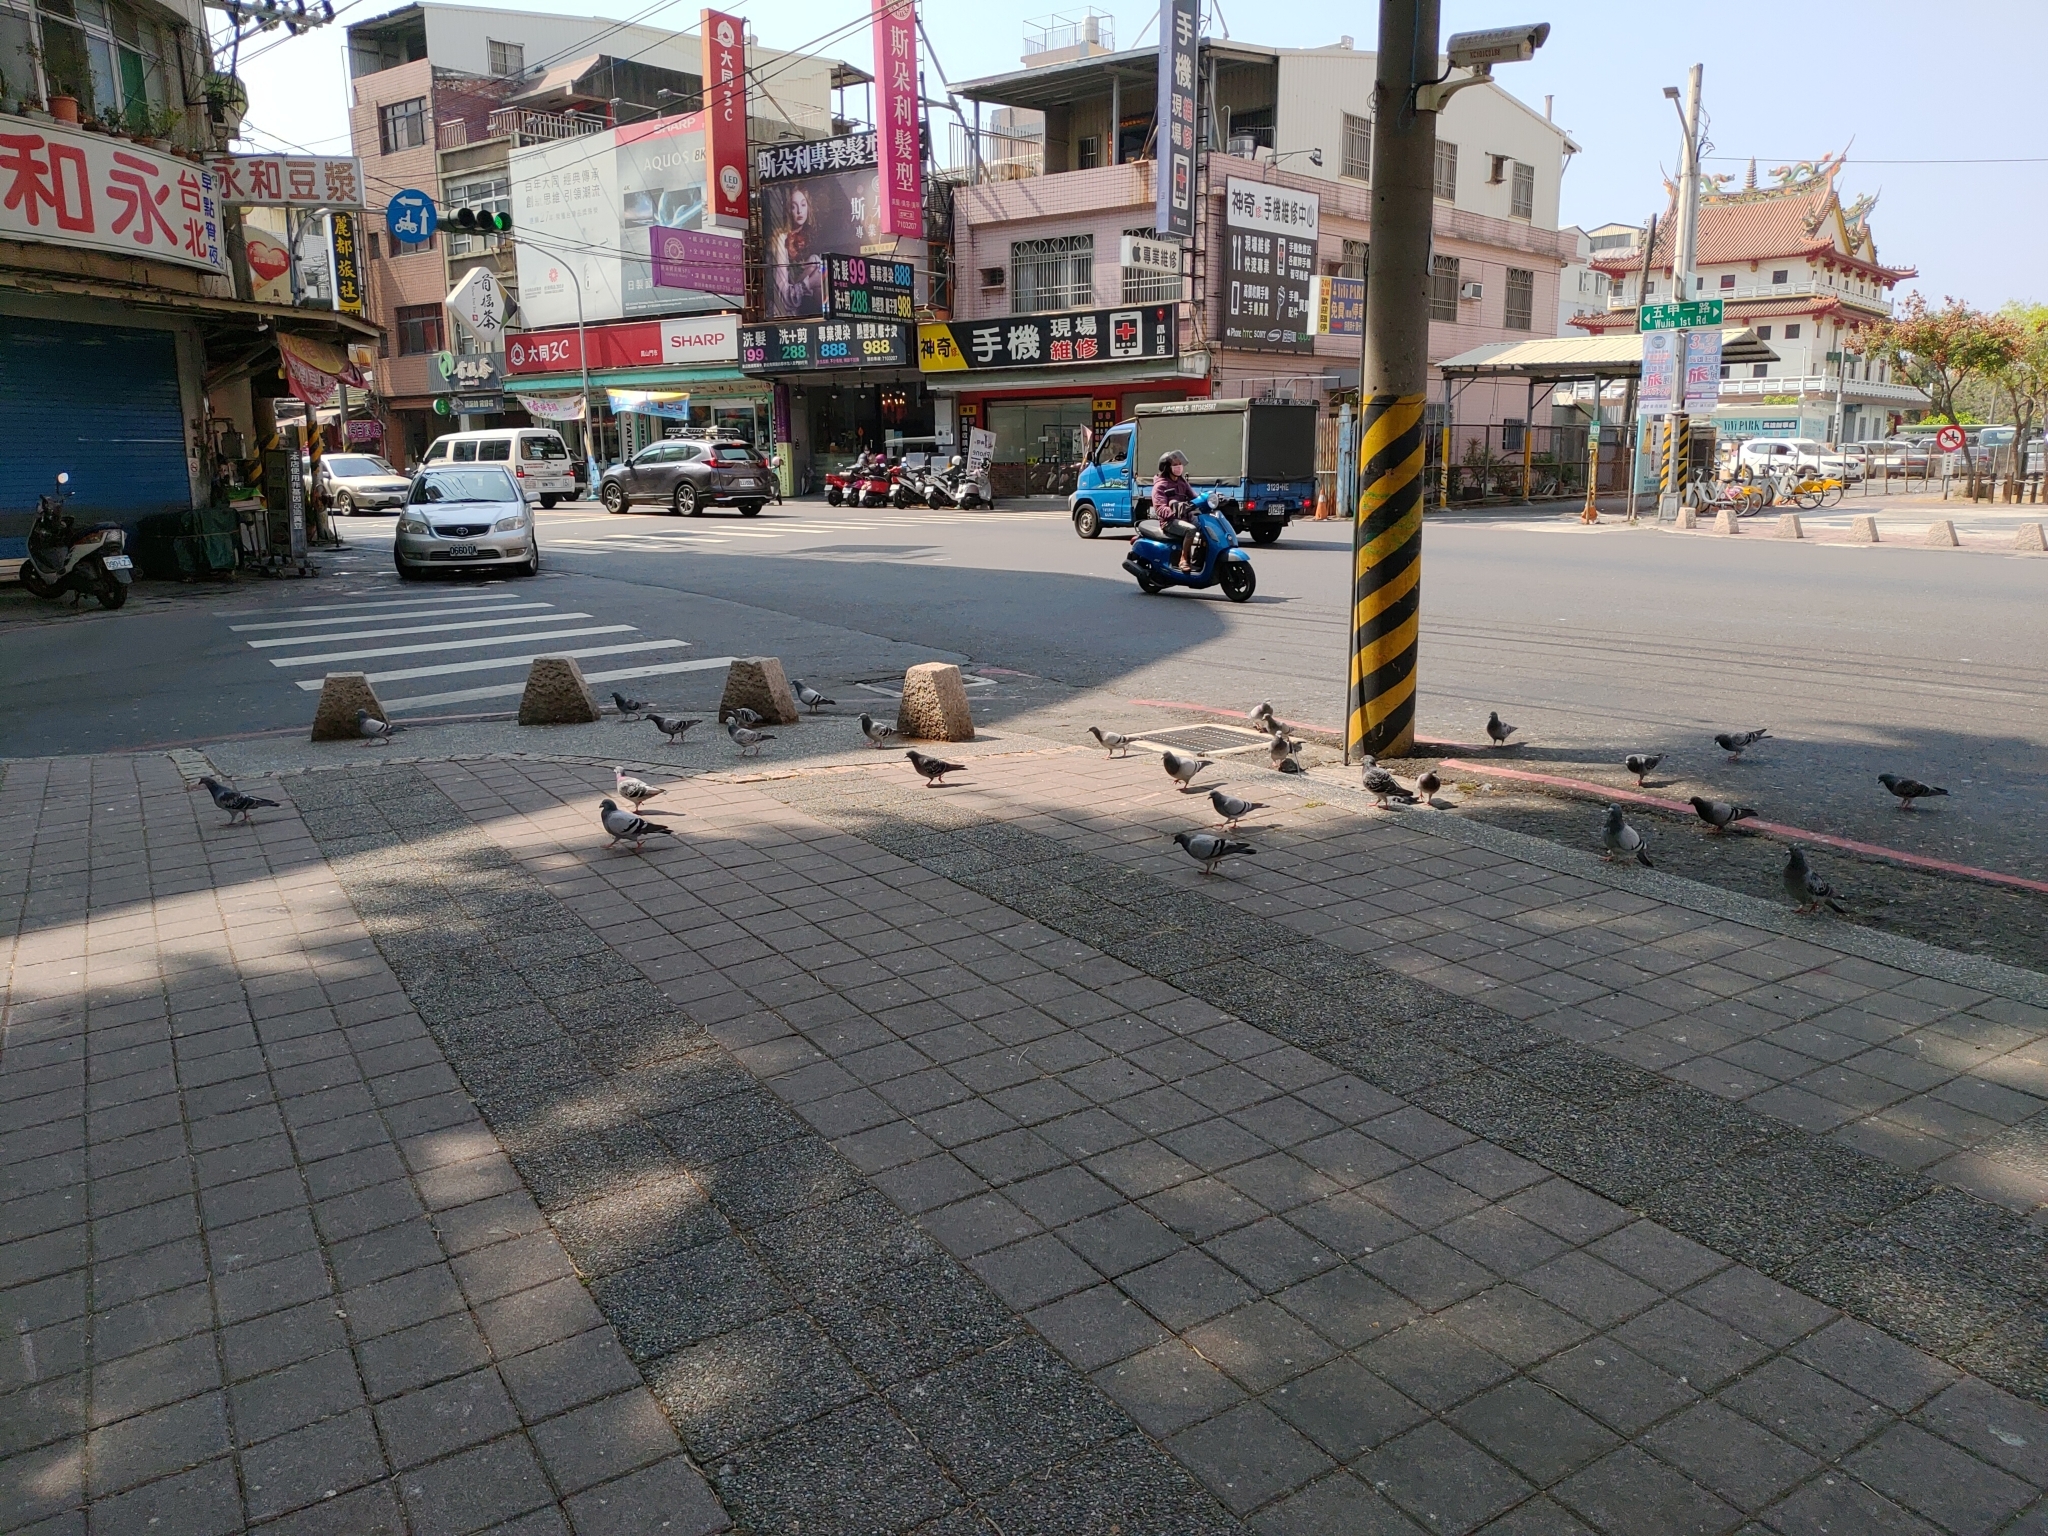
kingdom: Animalia
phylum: Chordata
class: Aves
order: Columbiformes
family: Columbidae
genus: Columba
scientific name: Columba livia
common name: Rock pigeon
